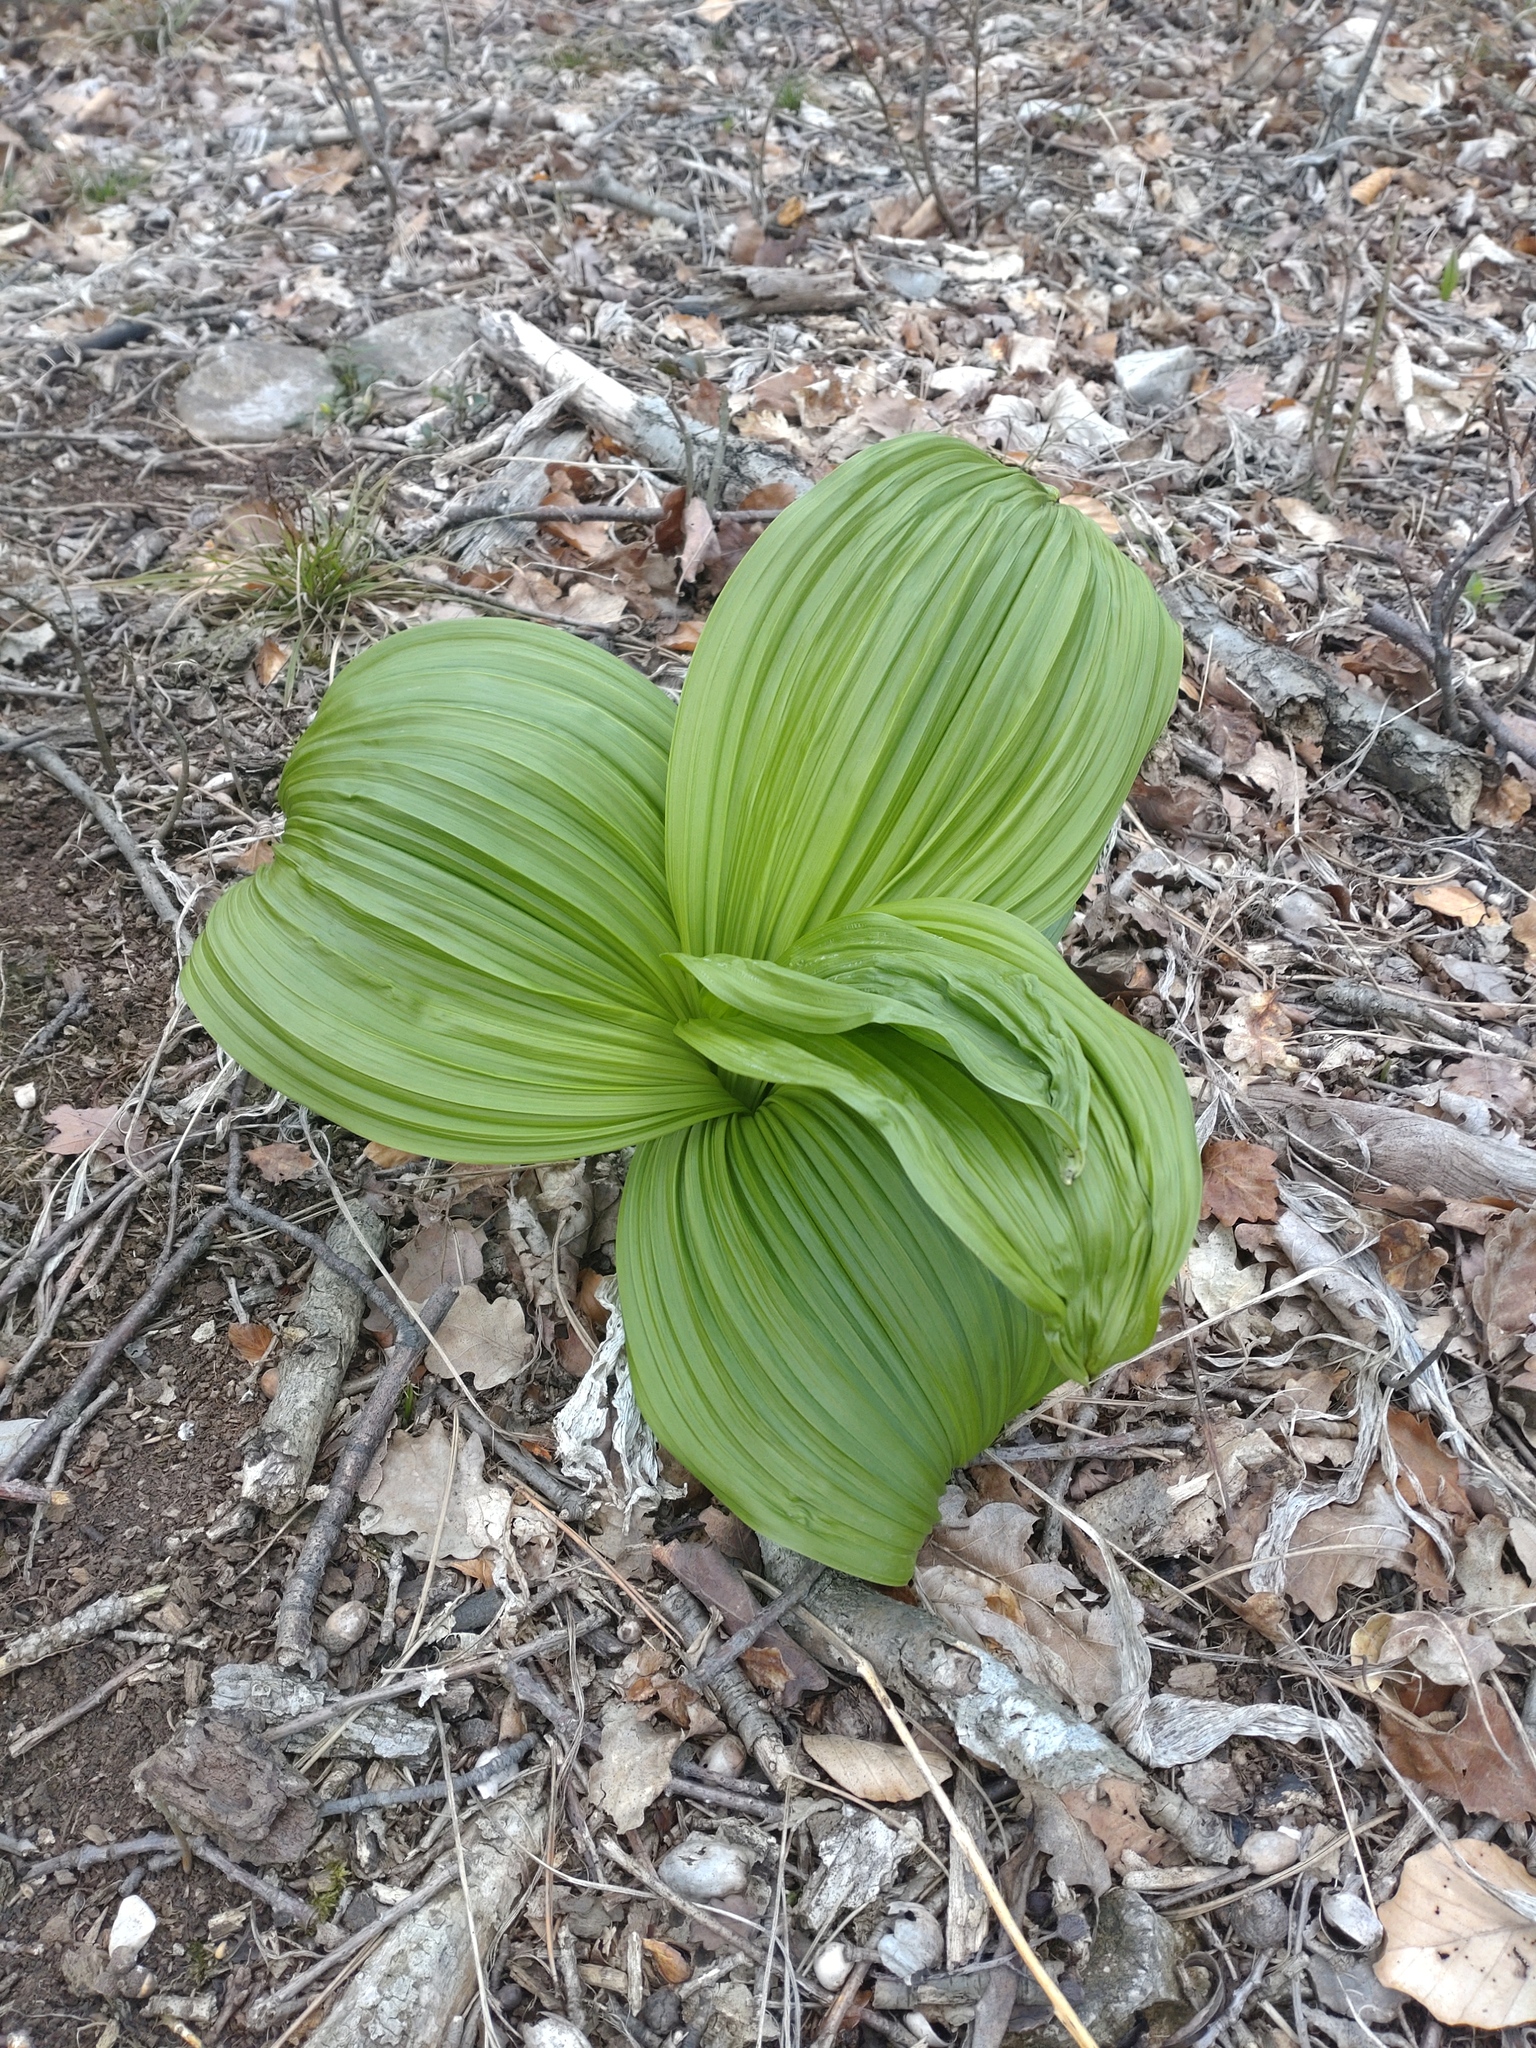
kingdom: Plantae
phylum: Tracheophyta
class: Liliopsida
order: Liliales
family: Melanthiaceae
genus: Veratrum
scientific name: Veratrum nigrum
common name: Black veratrum
